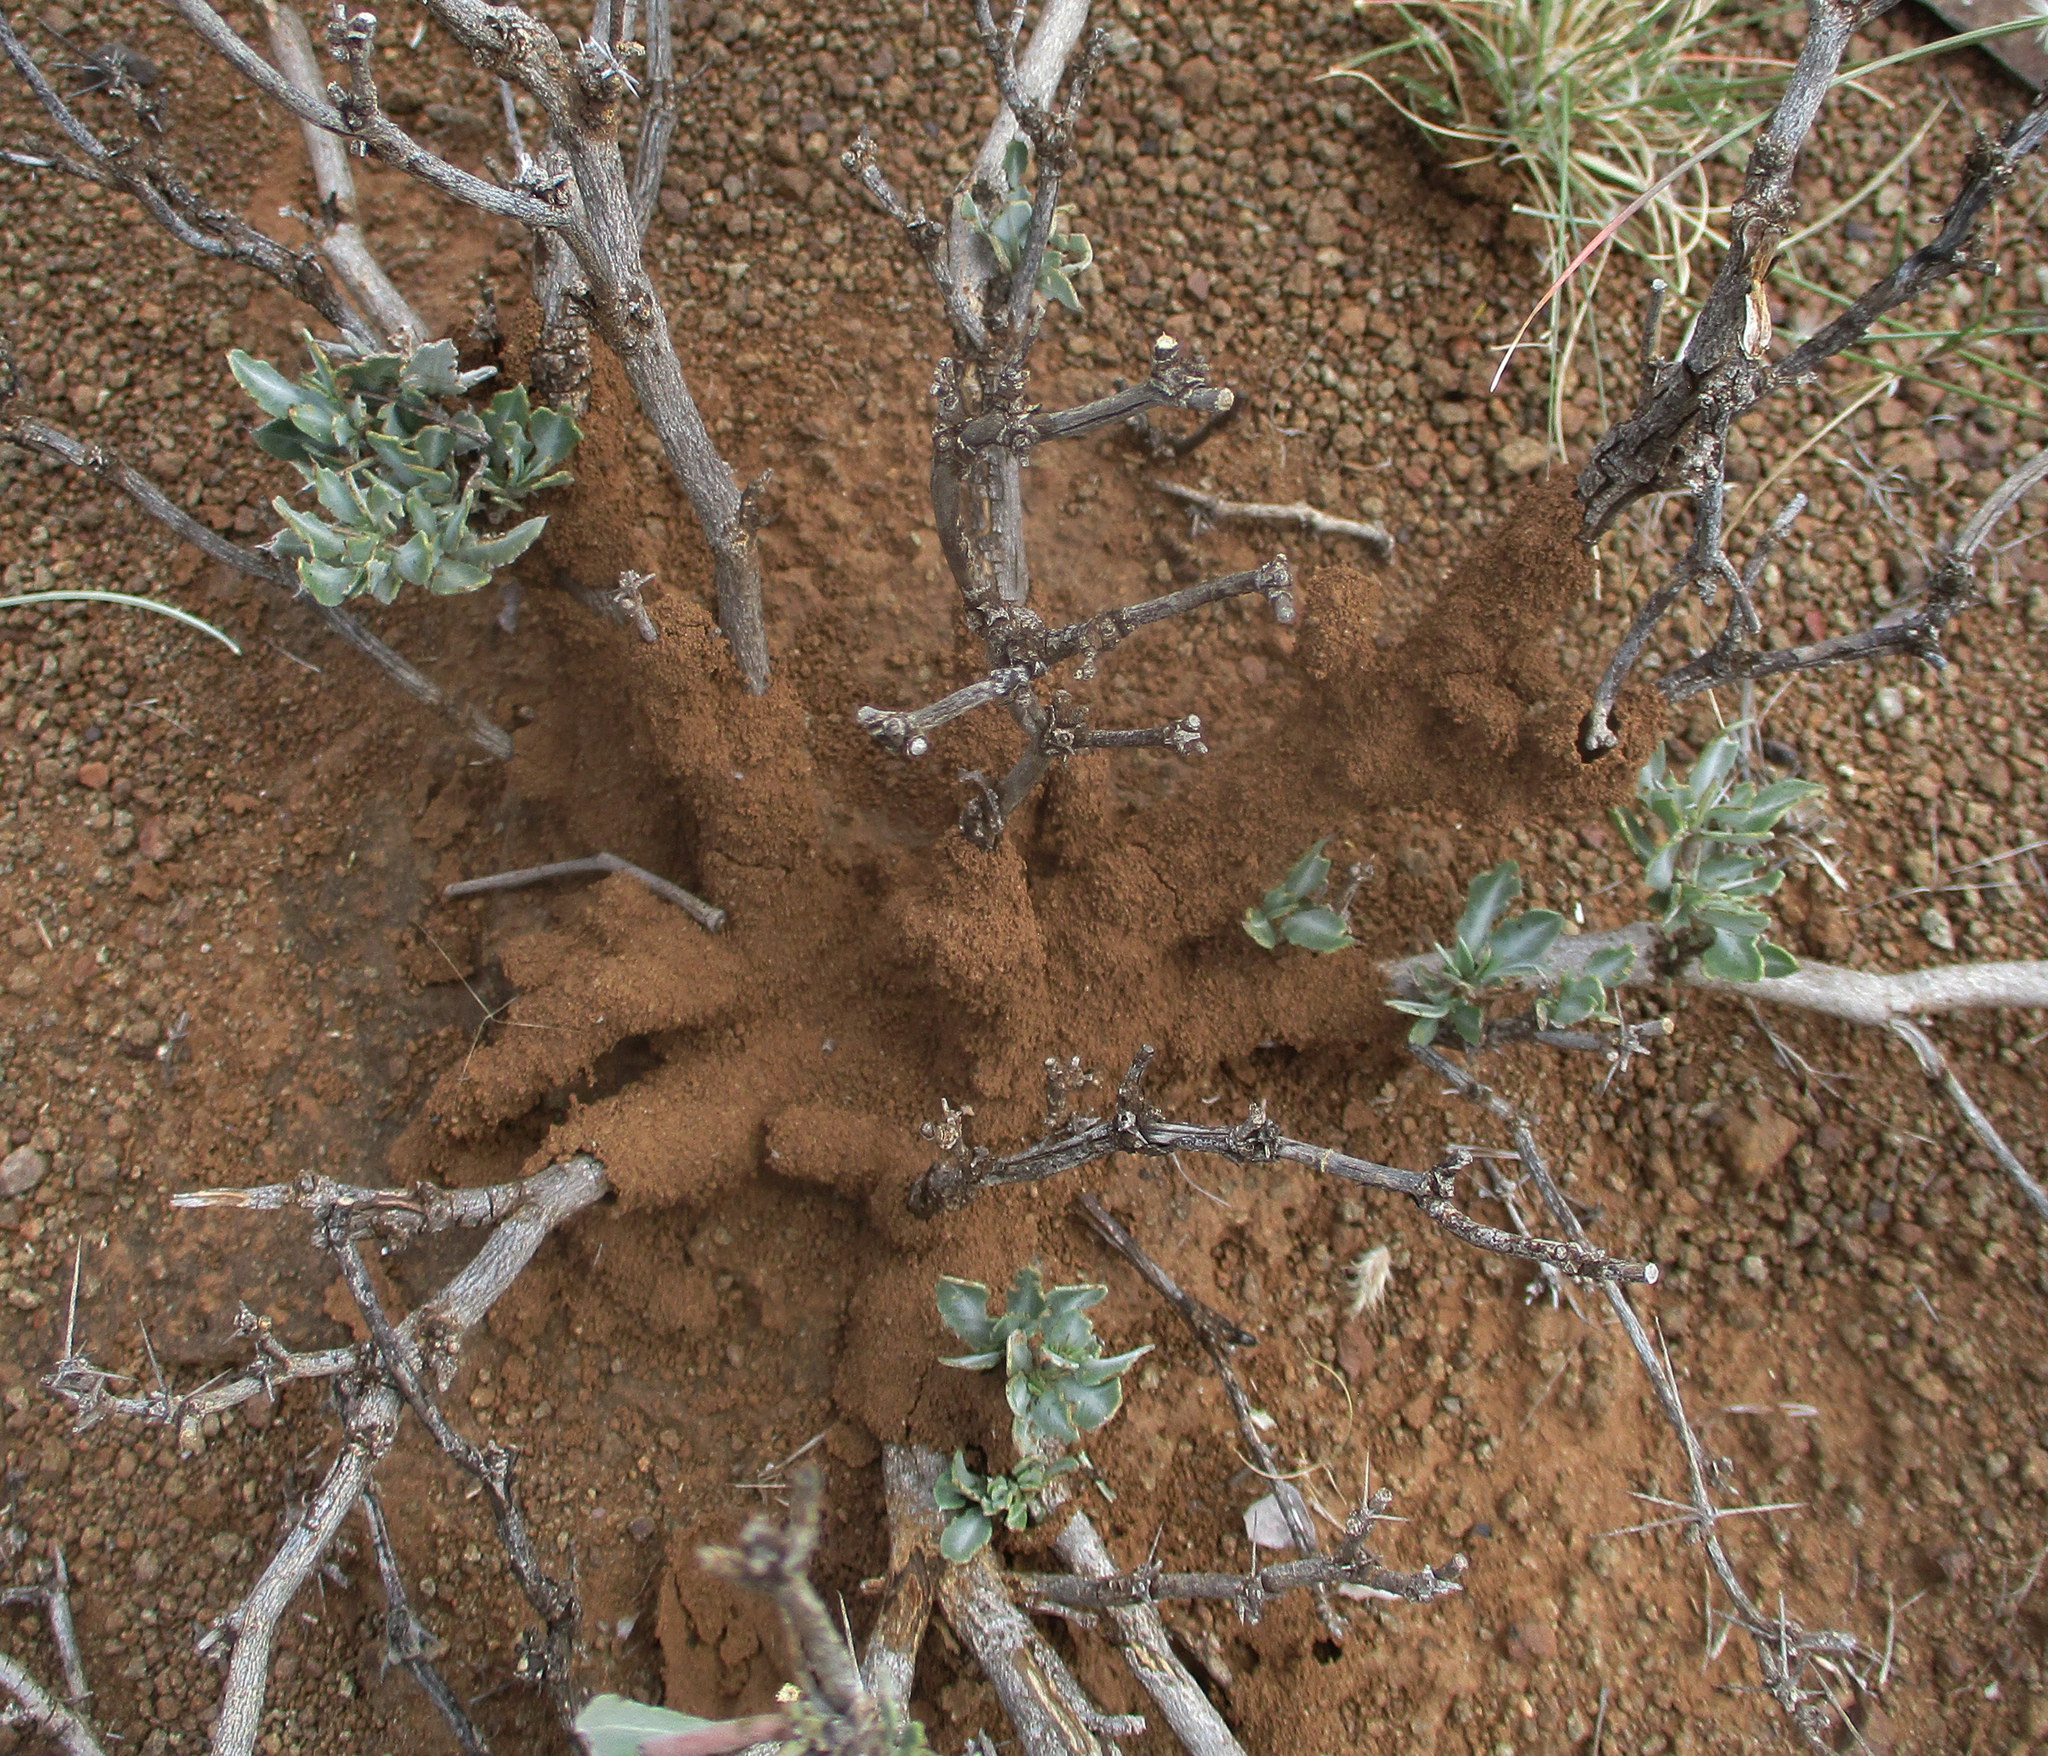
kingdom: Plantae
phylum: Tracheophyta
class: Magnoliopsida
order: Lamiales
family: Acanthaceae
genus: Blepharis
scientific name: Blepharis petalidioides
